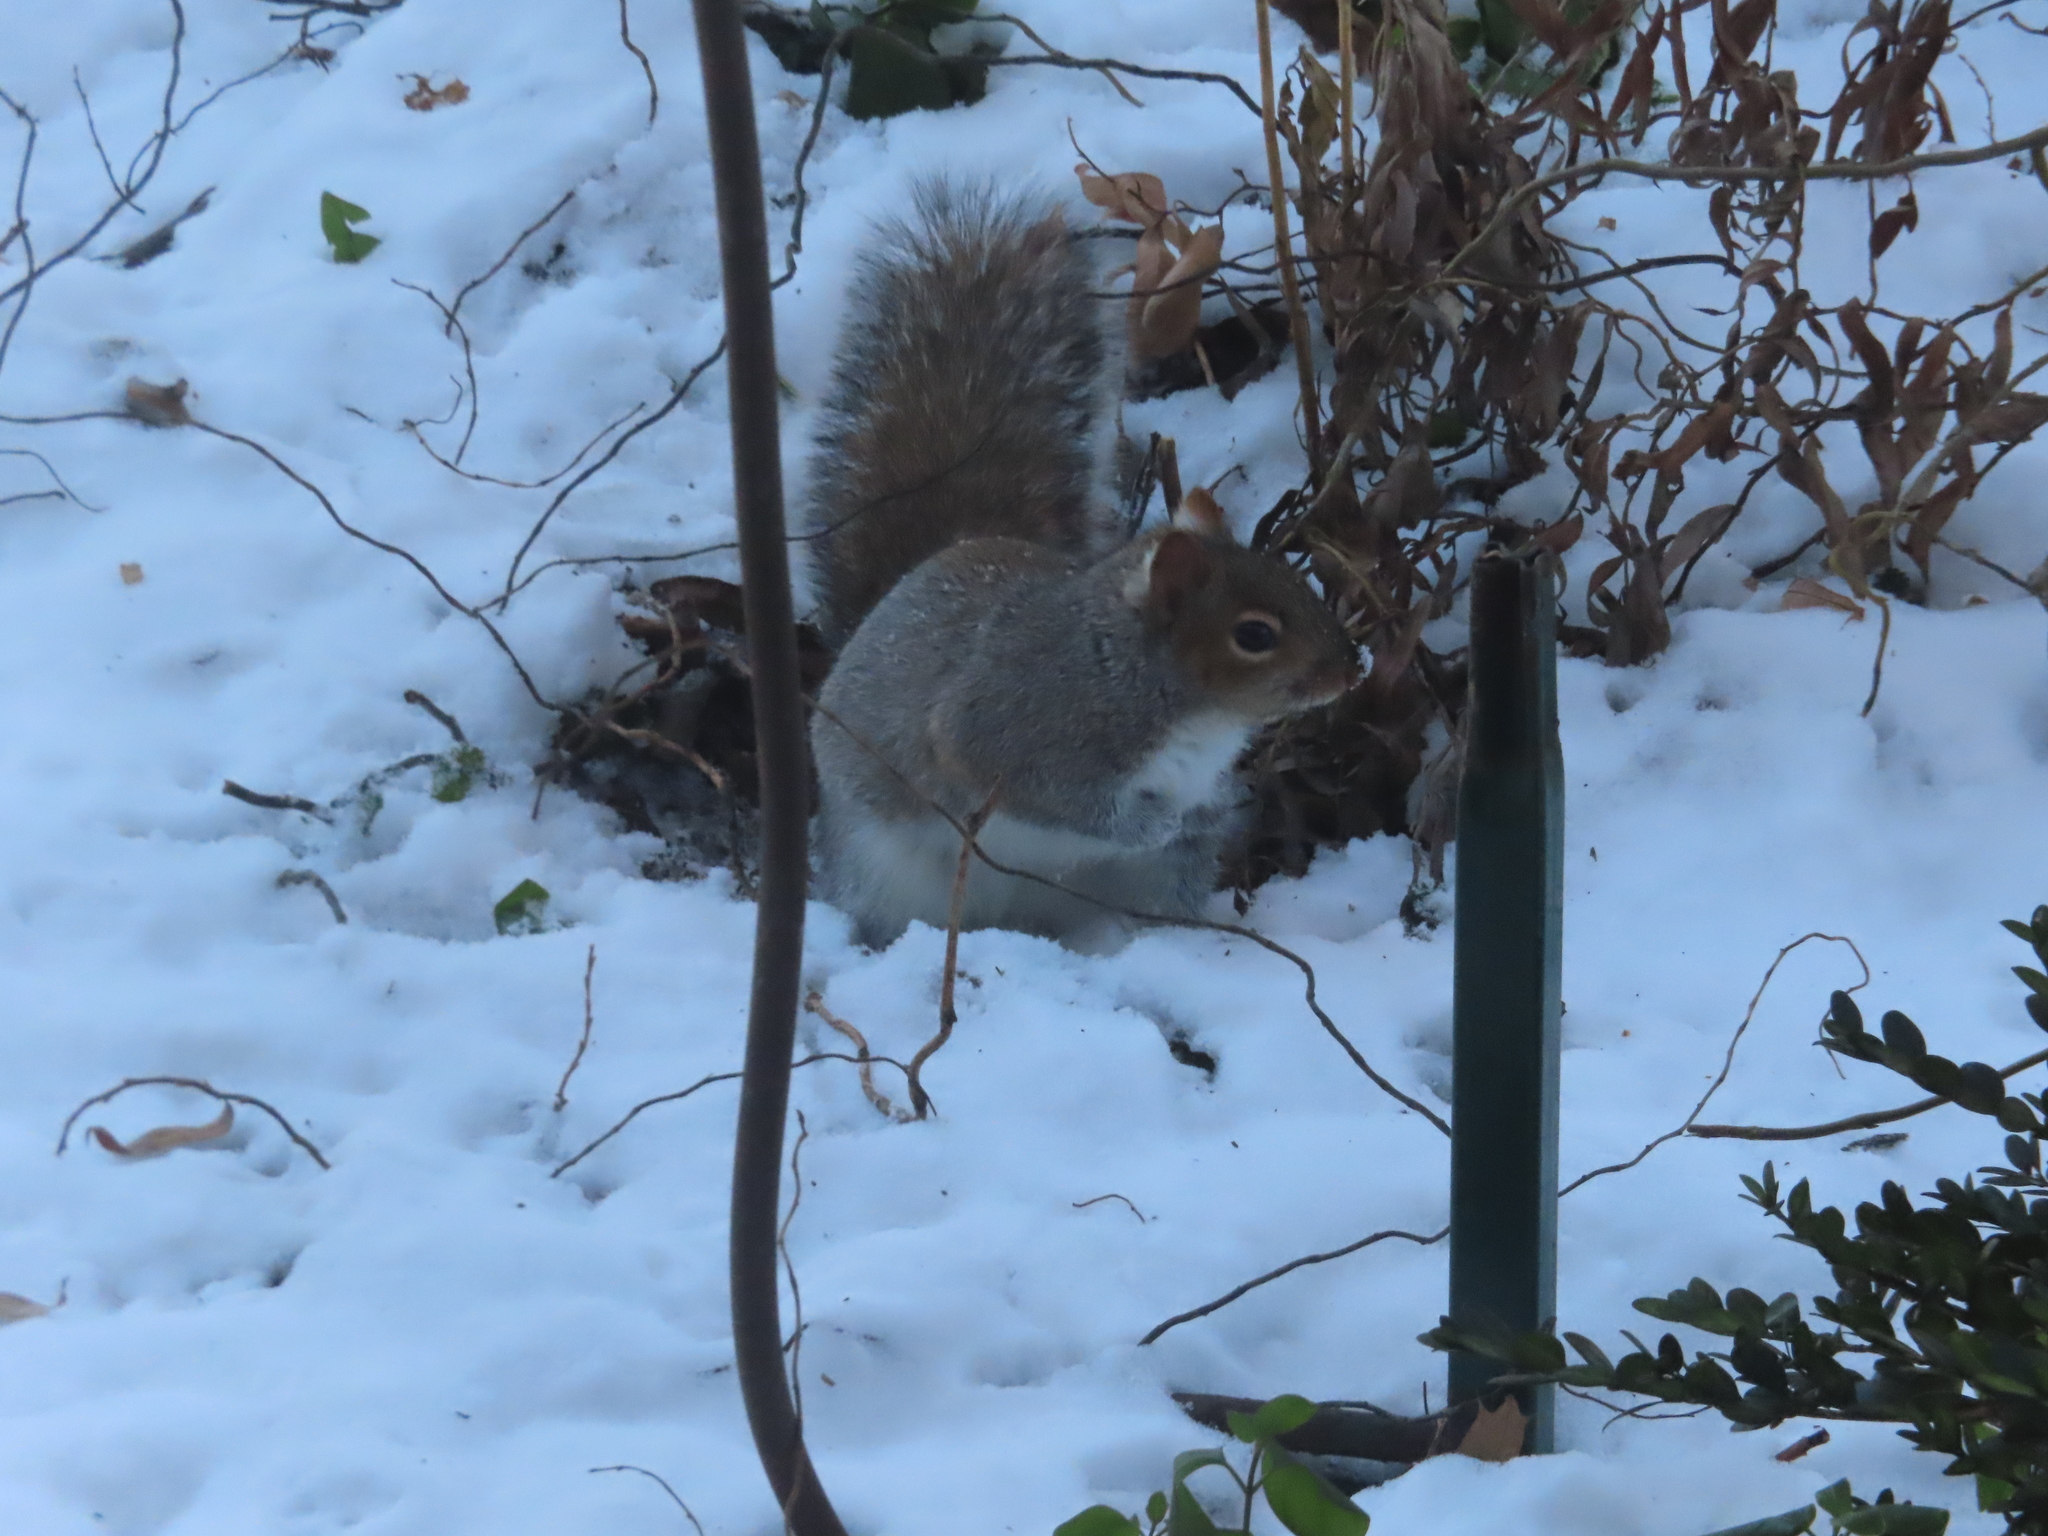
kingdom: Animalia
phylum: Chordata
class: Mammalia
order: Rodentia
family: Sciuridae
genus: Sciurus
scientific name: Sciurus carolinensis
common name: Eastern gray squirrel
